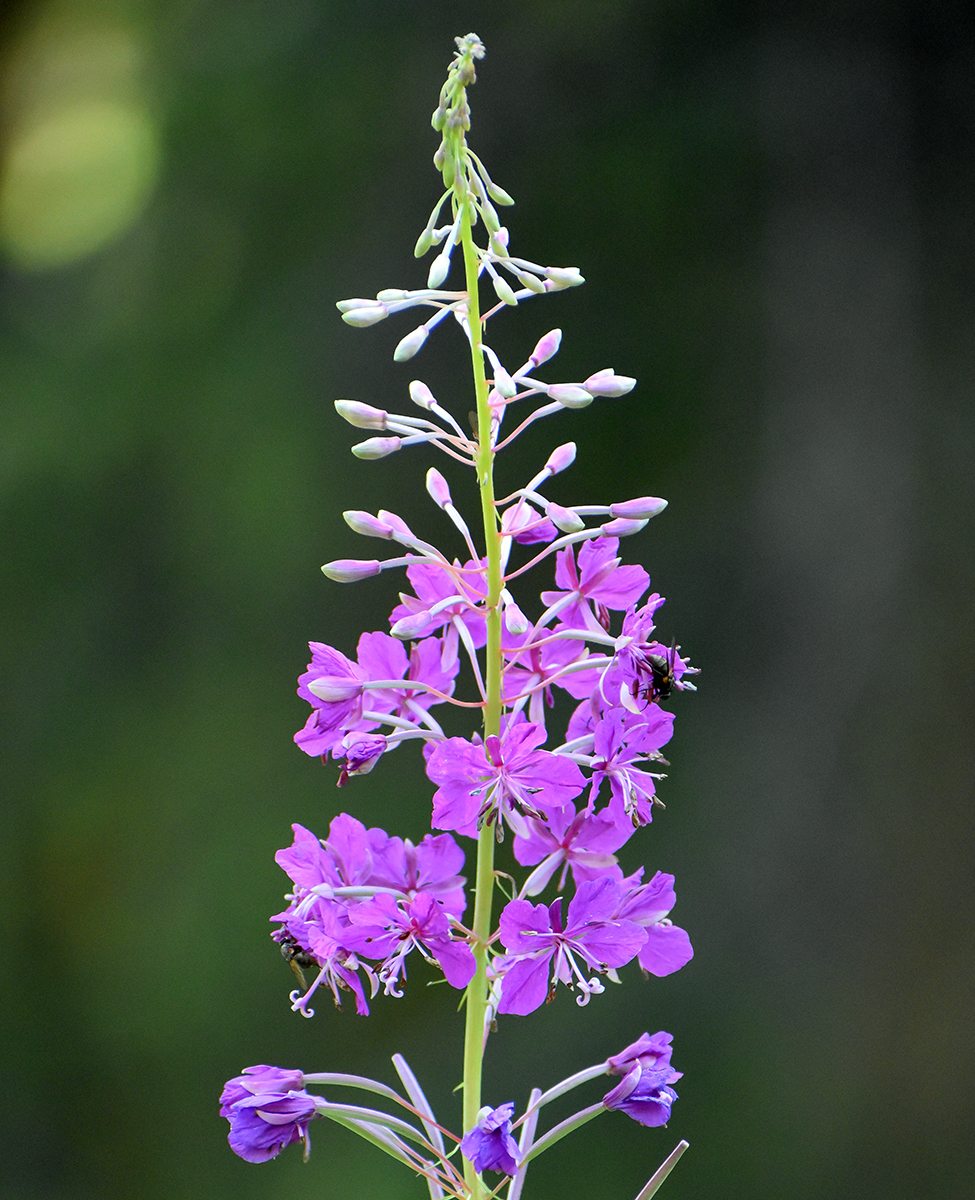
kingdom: Plantae
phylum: Tracheophyta
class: Magnoliopsida
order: Myrtales
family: Onagraceae
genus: Chamaenerion
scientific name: Chamaenerion angustifolium
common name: Fireweed
